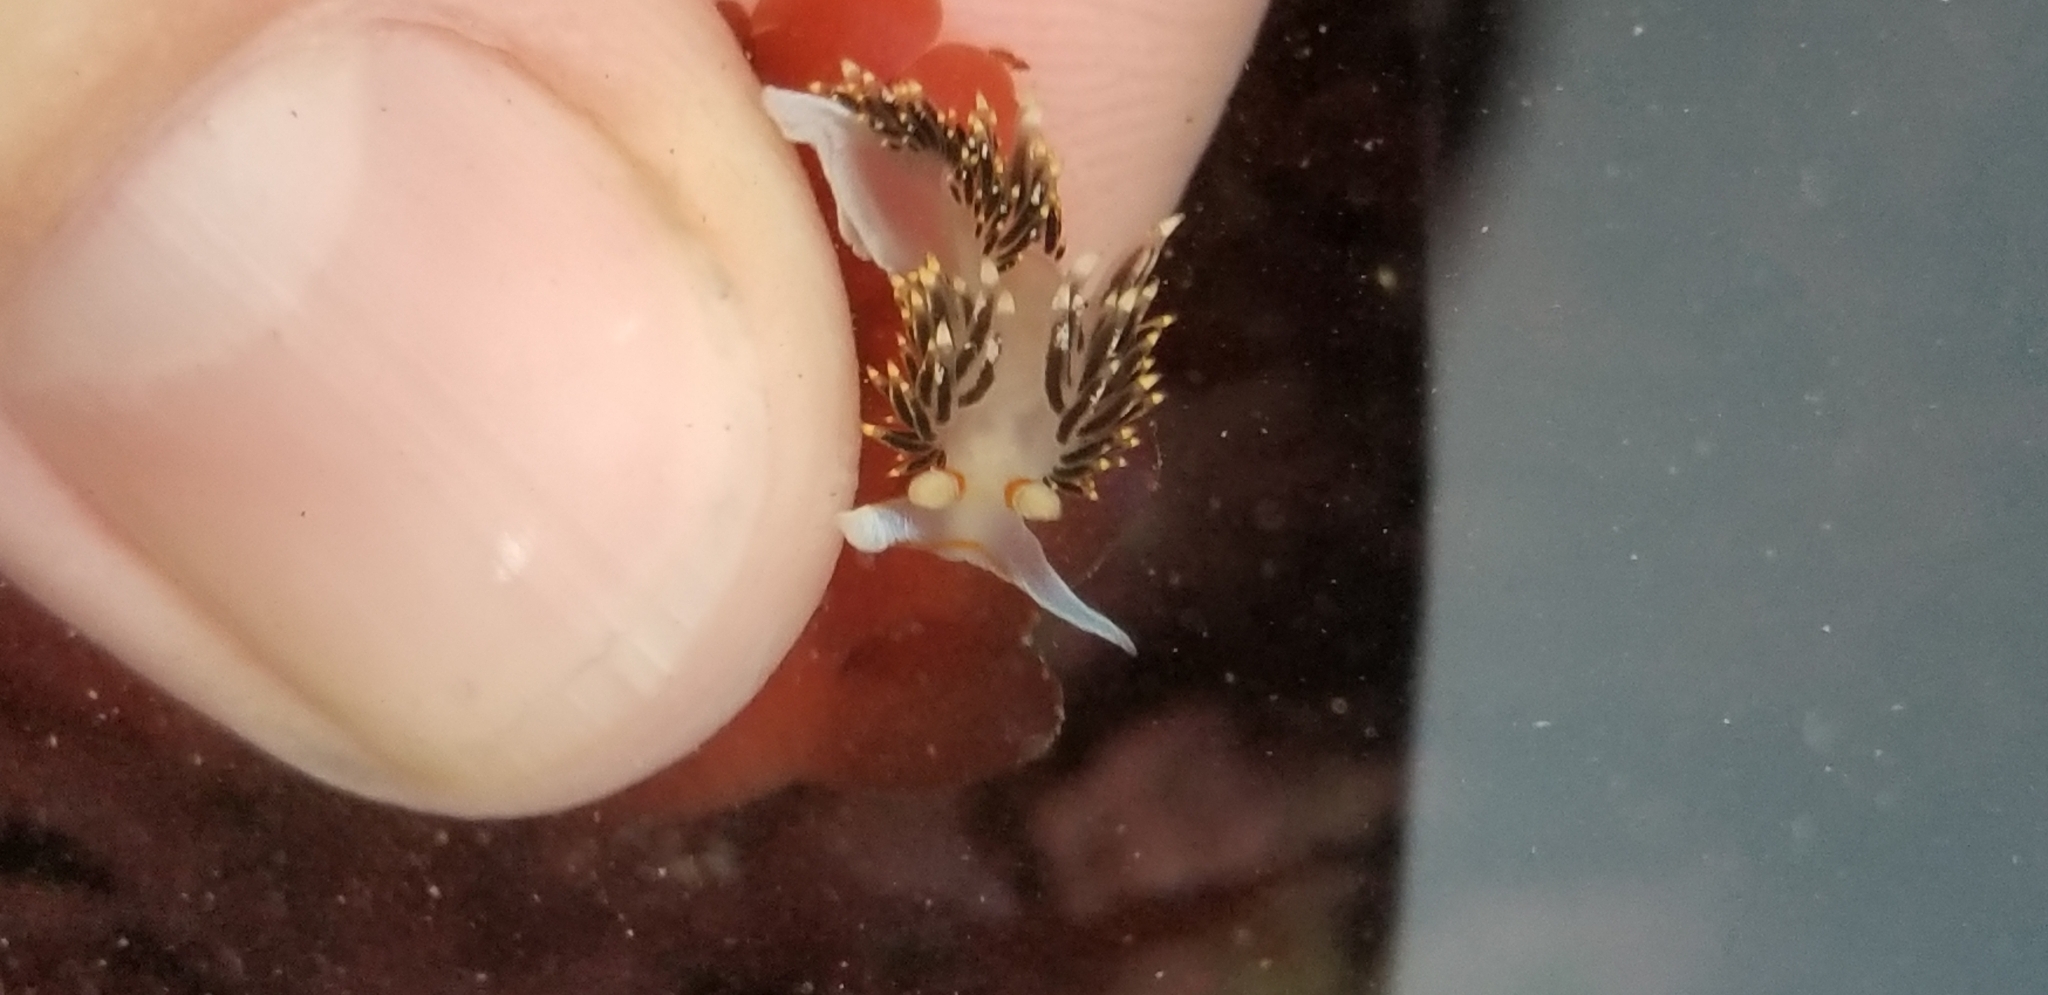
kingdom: Animalia
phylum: Mollusca
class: Gastropoda
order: Nudibranchia
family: Facelinidae
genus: Phidiana
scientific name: Phidiana hiltoni
